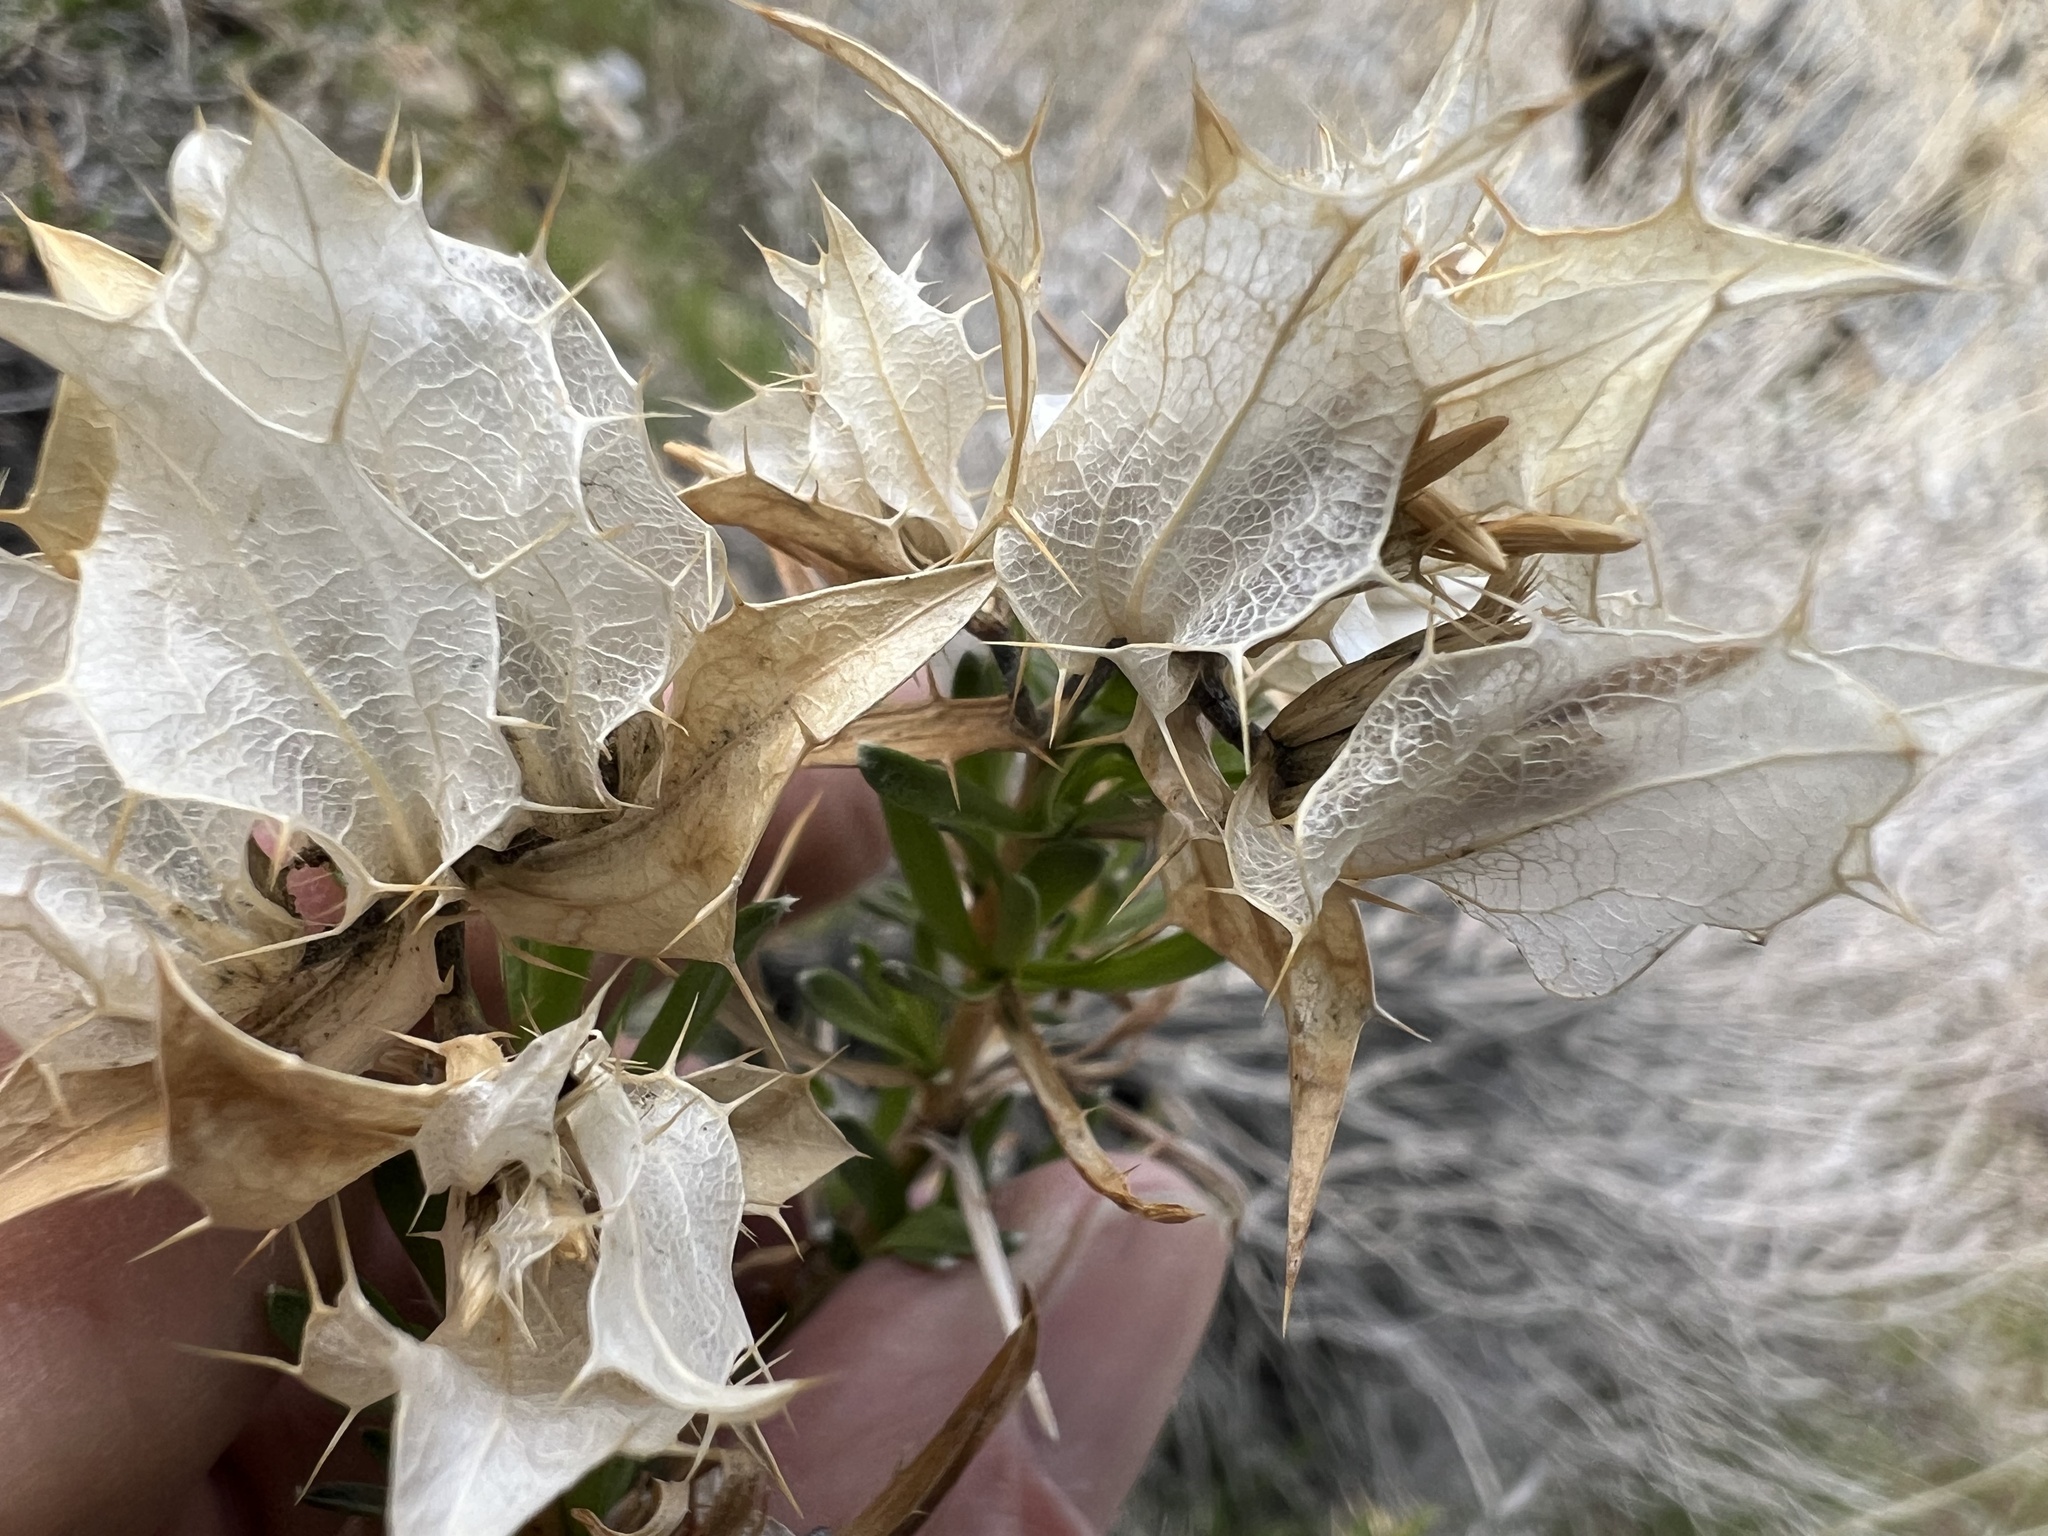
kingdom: Plantae
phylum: Tracheophyta
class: Magnoliopsida
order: Asterales
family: Asteraceae
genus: Hecastocleis
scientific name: Hecastocleis shockleyi
